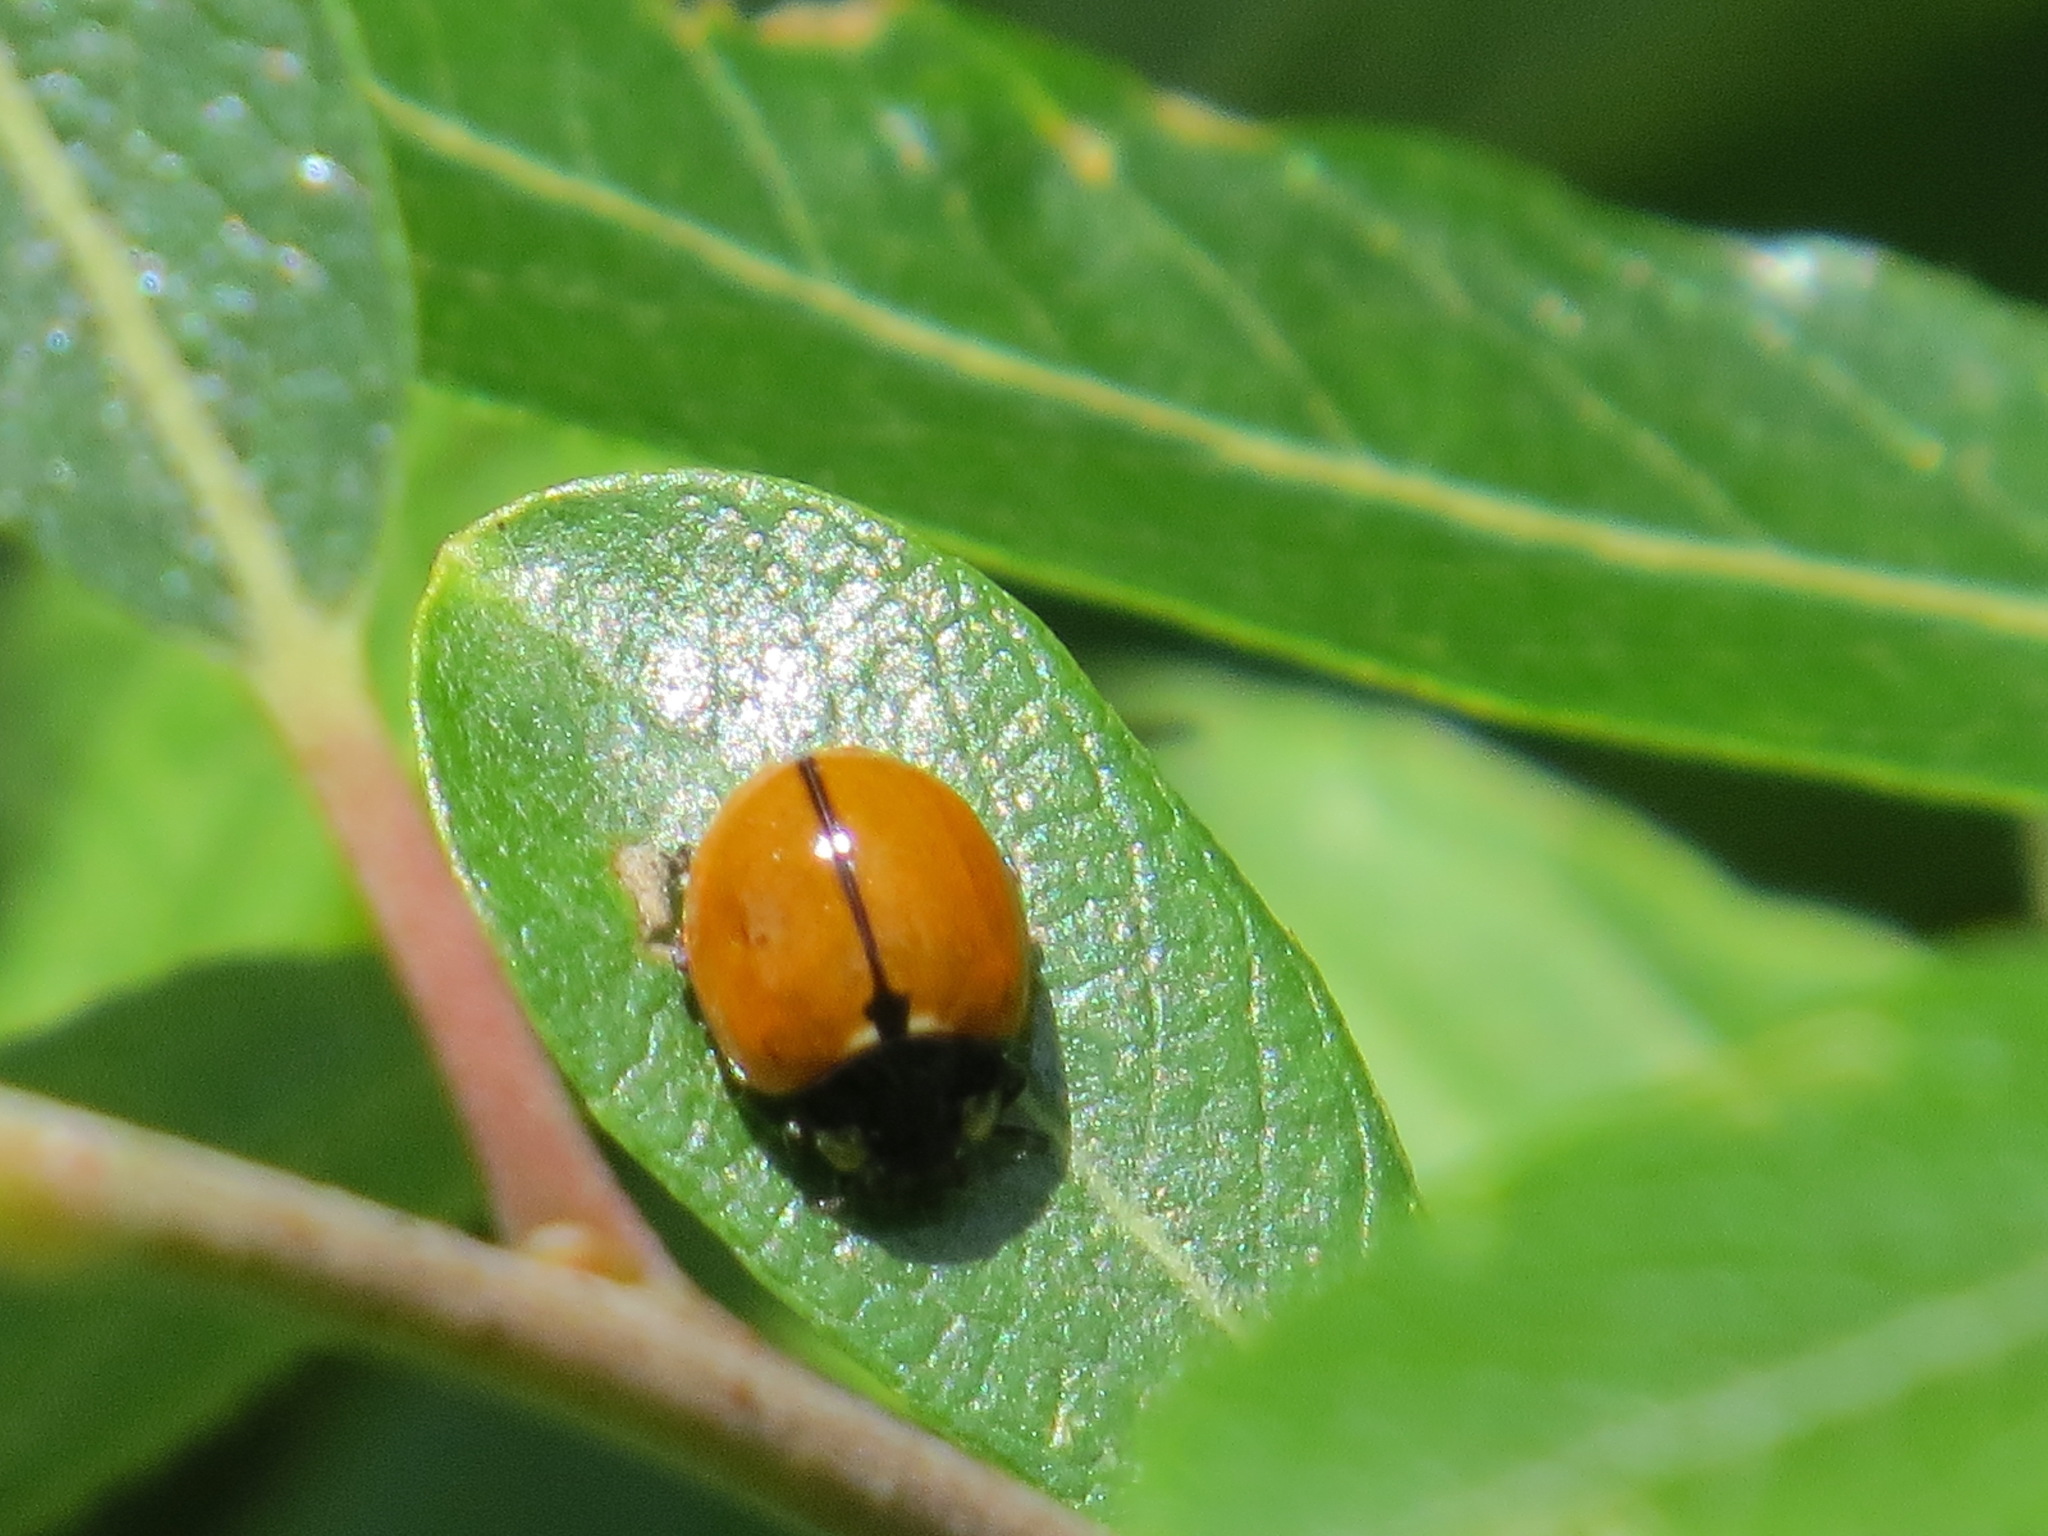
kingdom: Animalia
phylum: Arthropoda
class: Insecta
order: Coleoptera
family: Coccinellidae
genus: Coccinella
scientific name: Coccinella californica
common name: Lady beetle
